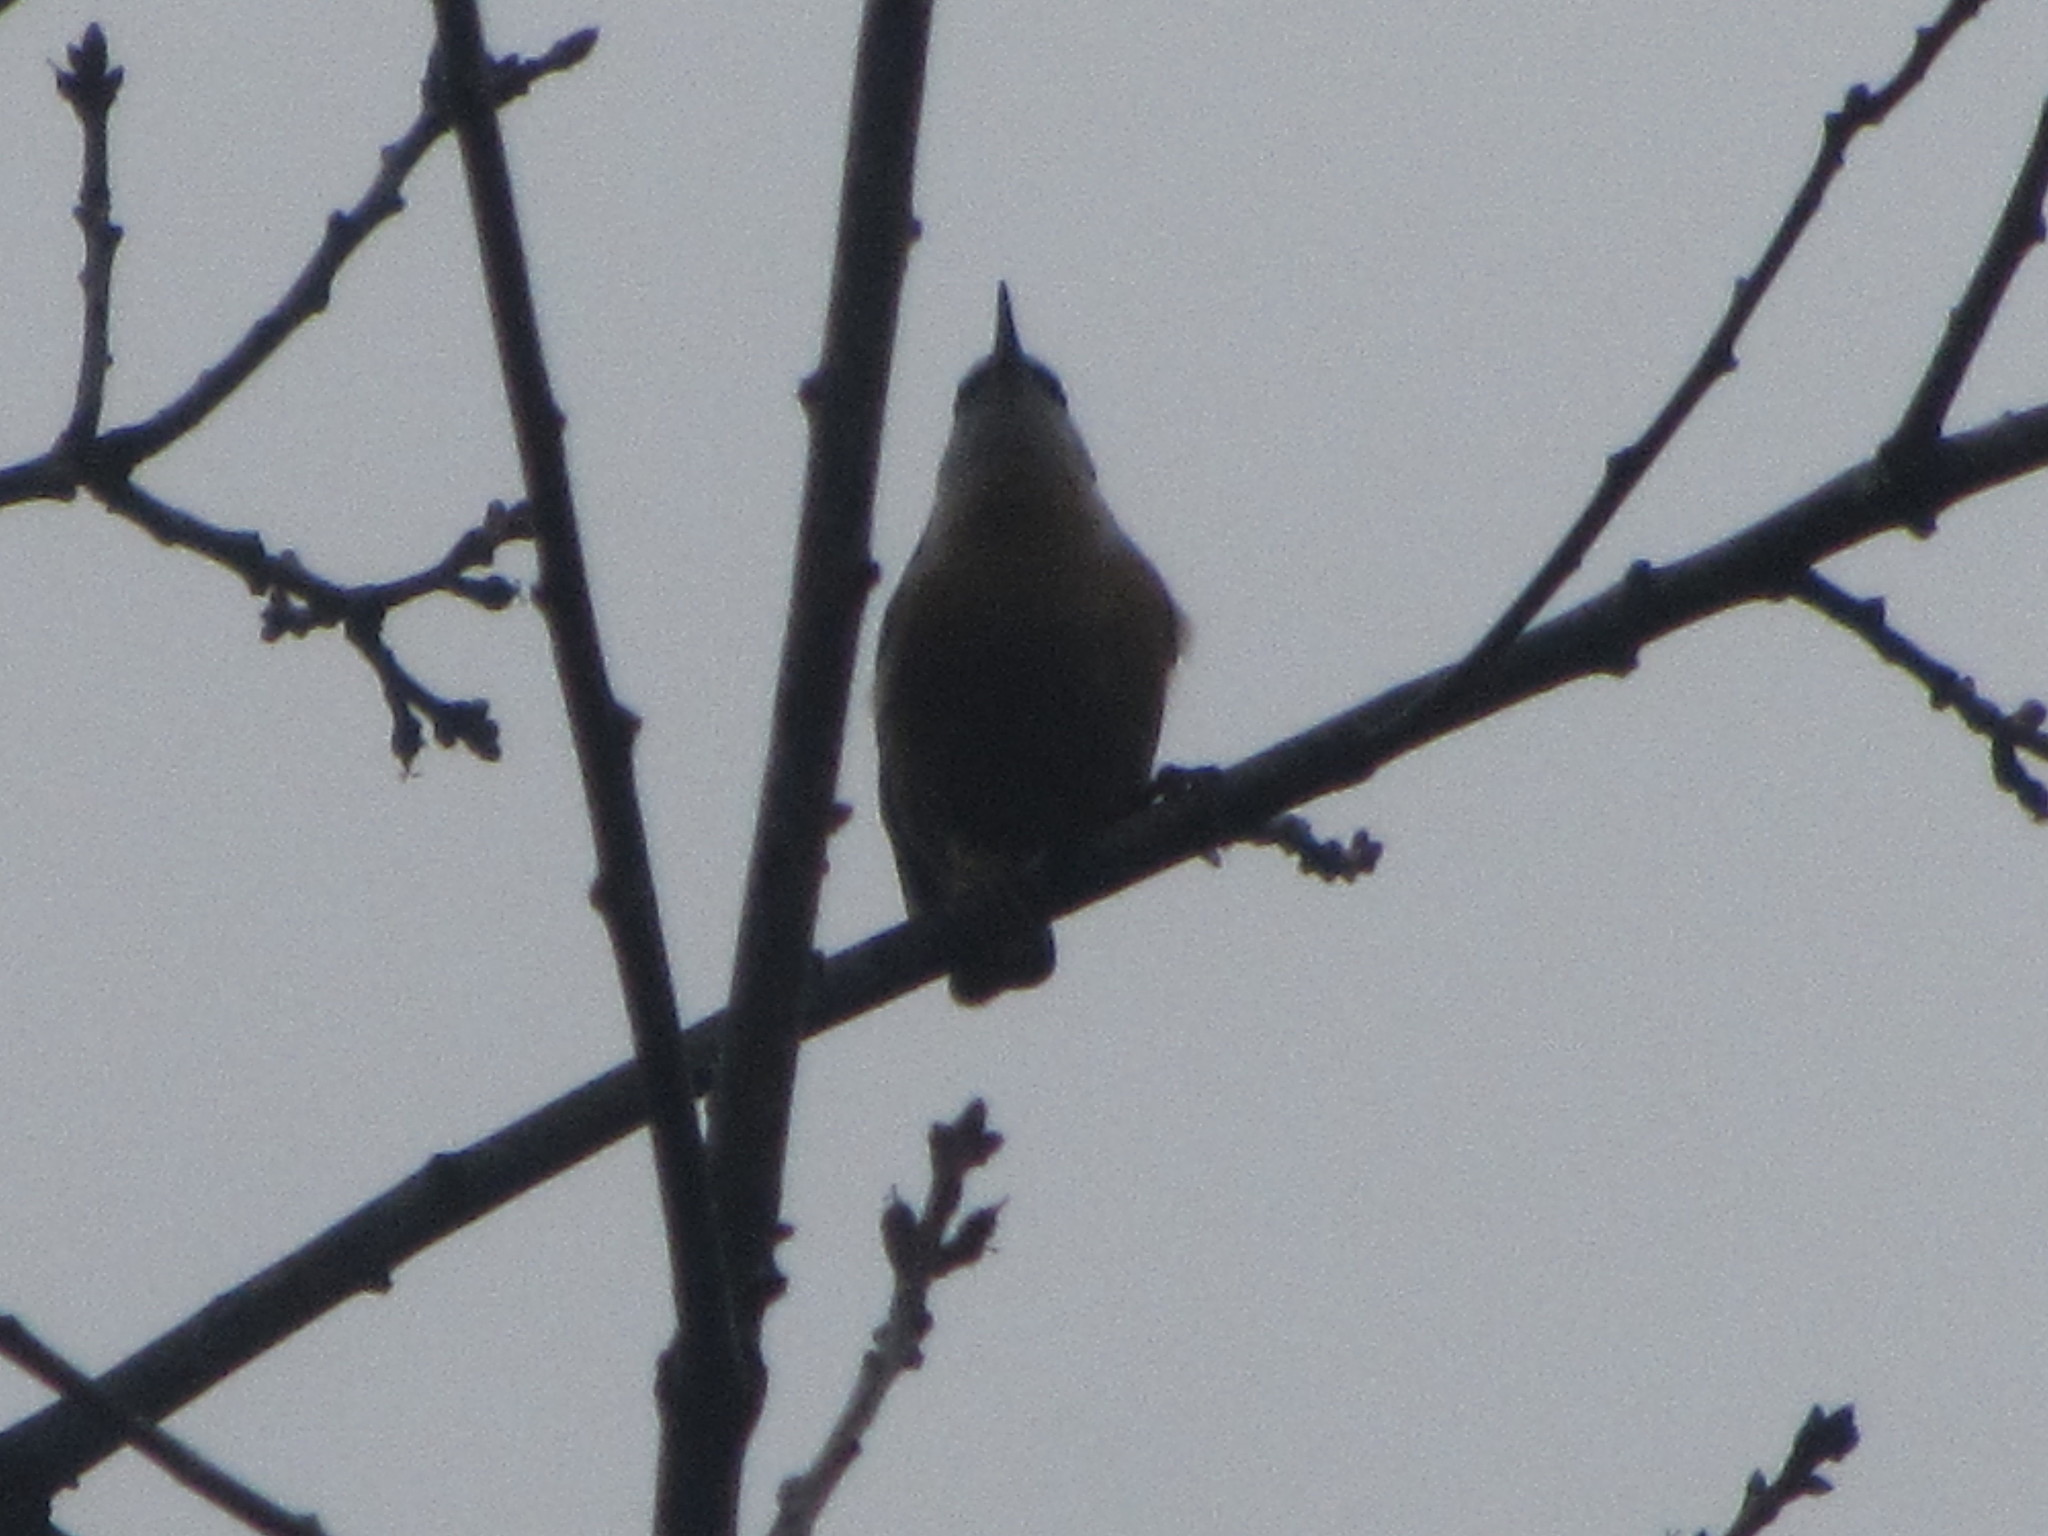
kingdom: Animalia
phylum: Chordata
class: Aves
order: Passeriformes
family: Sittidae
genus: Sitta
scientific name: Sitta canadensis
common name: Red-breasted nuthatch
